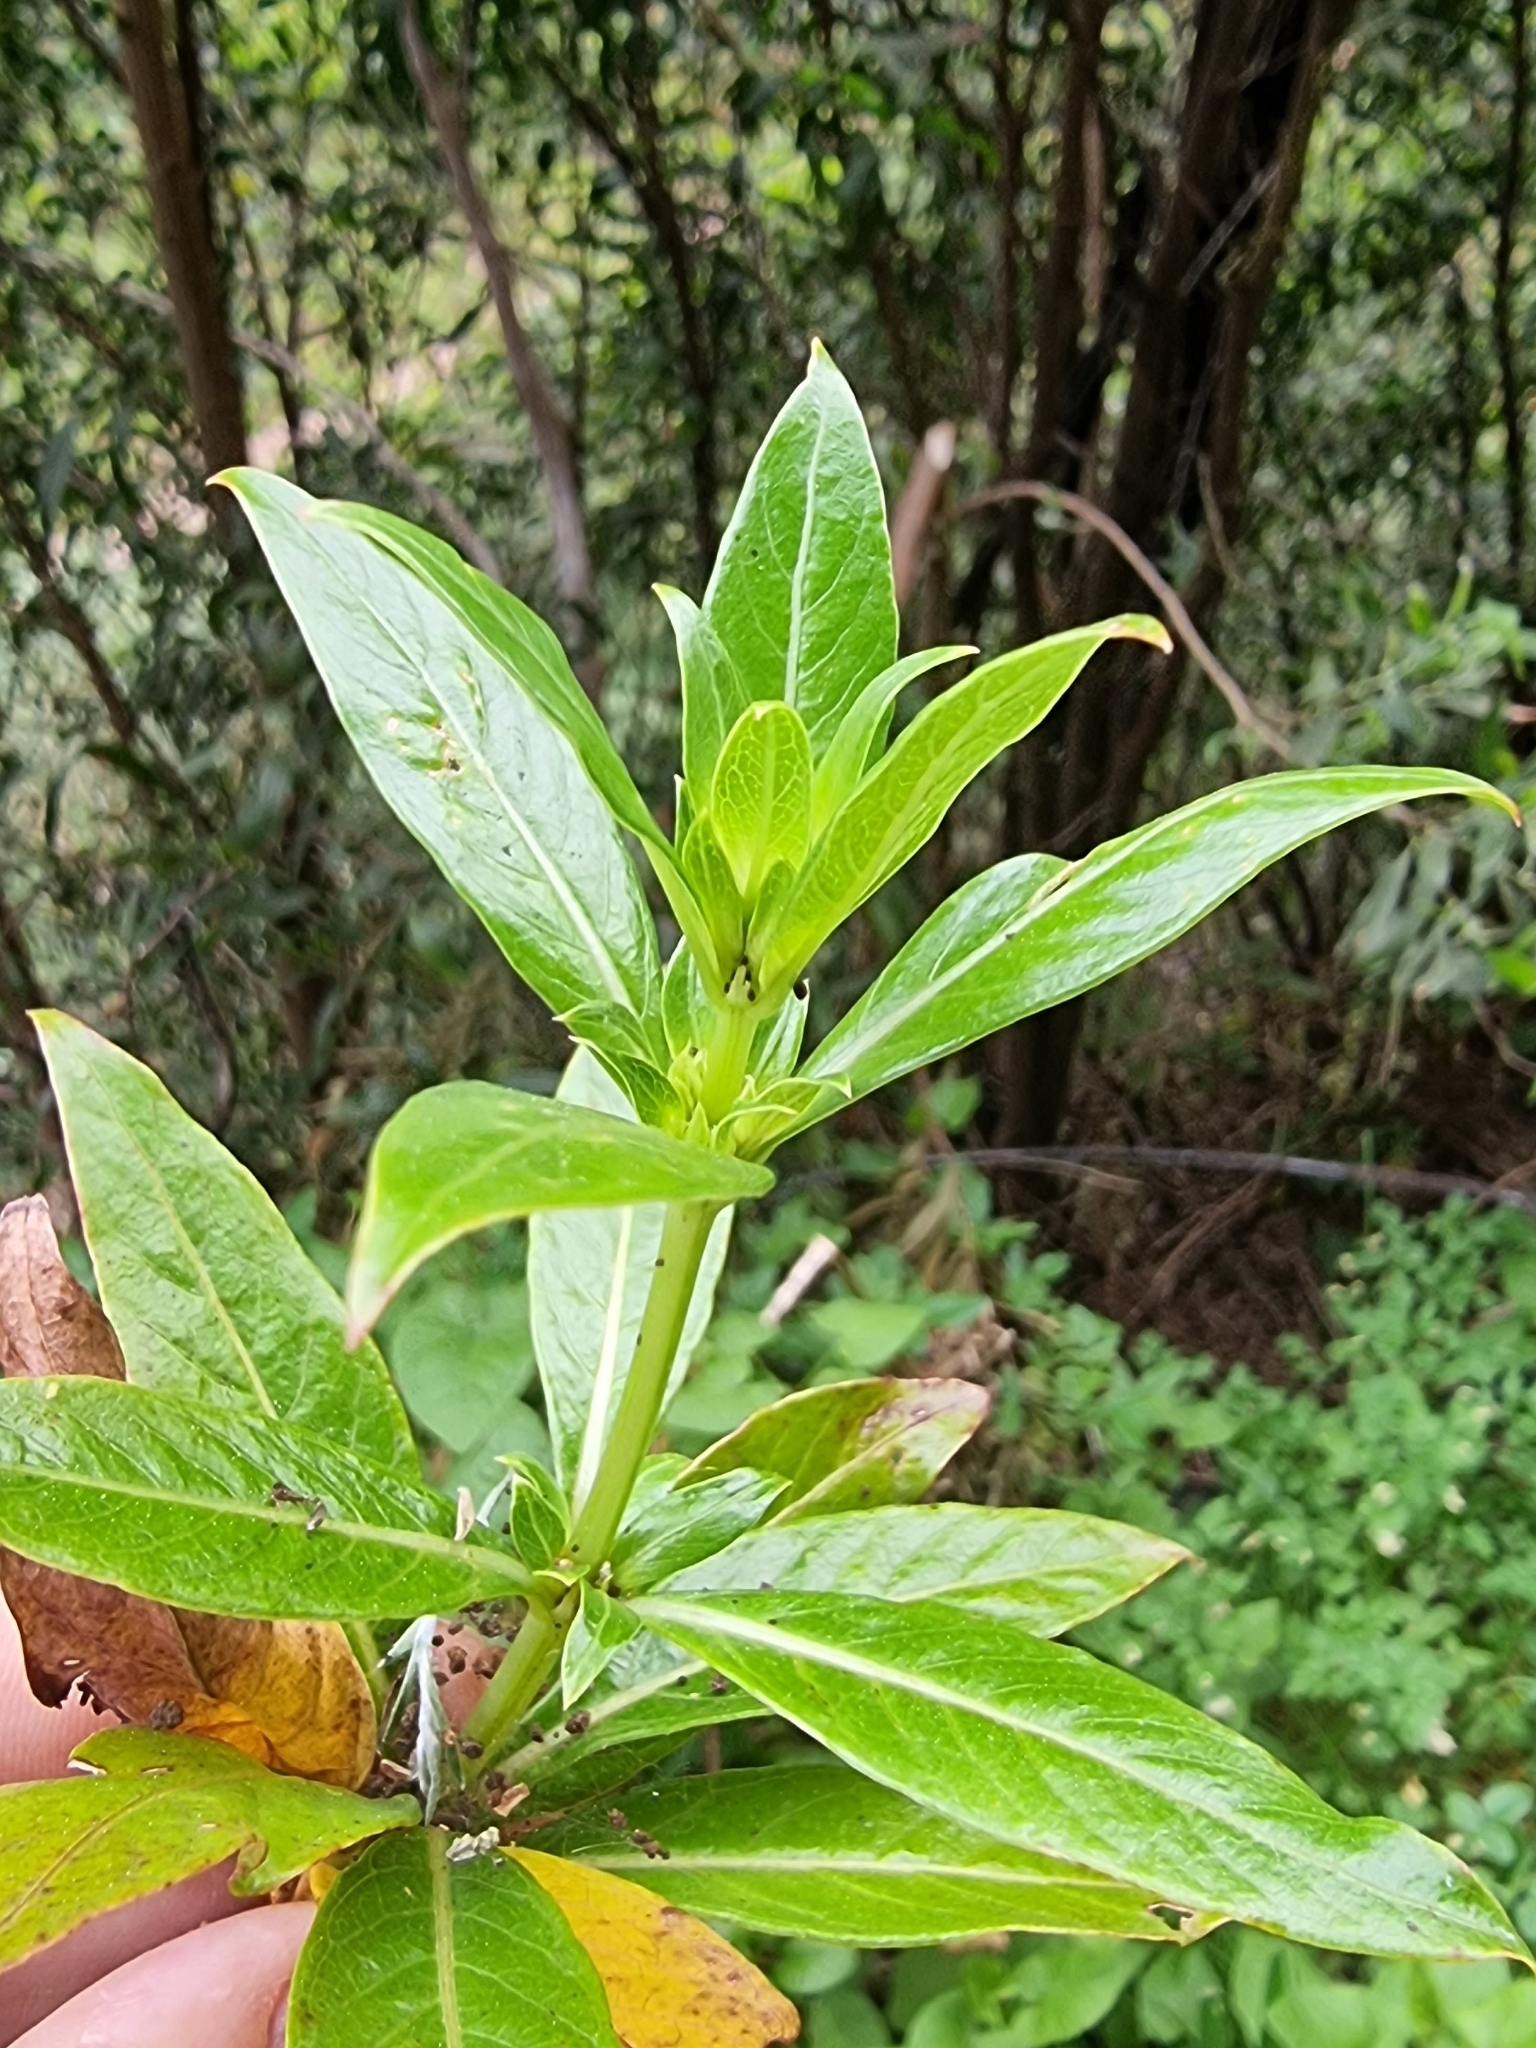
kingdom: Plantae
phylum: Tracheophyta
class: Magnoliopsida
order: Gentianales
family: Rubiaceae
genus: Phyllis
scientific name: Phyllis nobla
